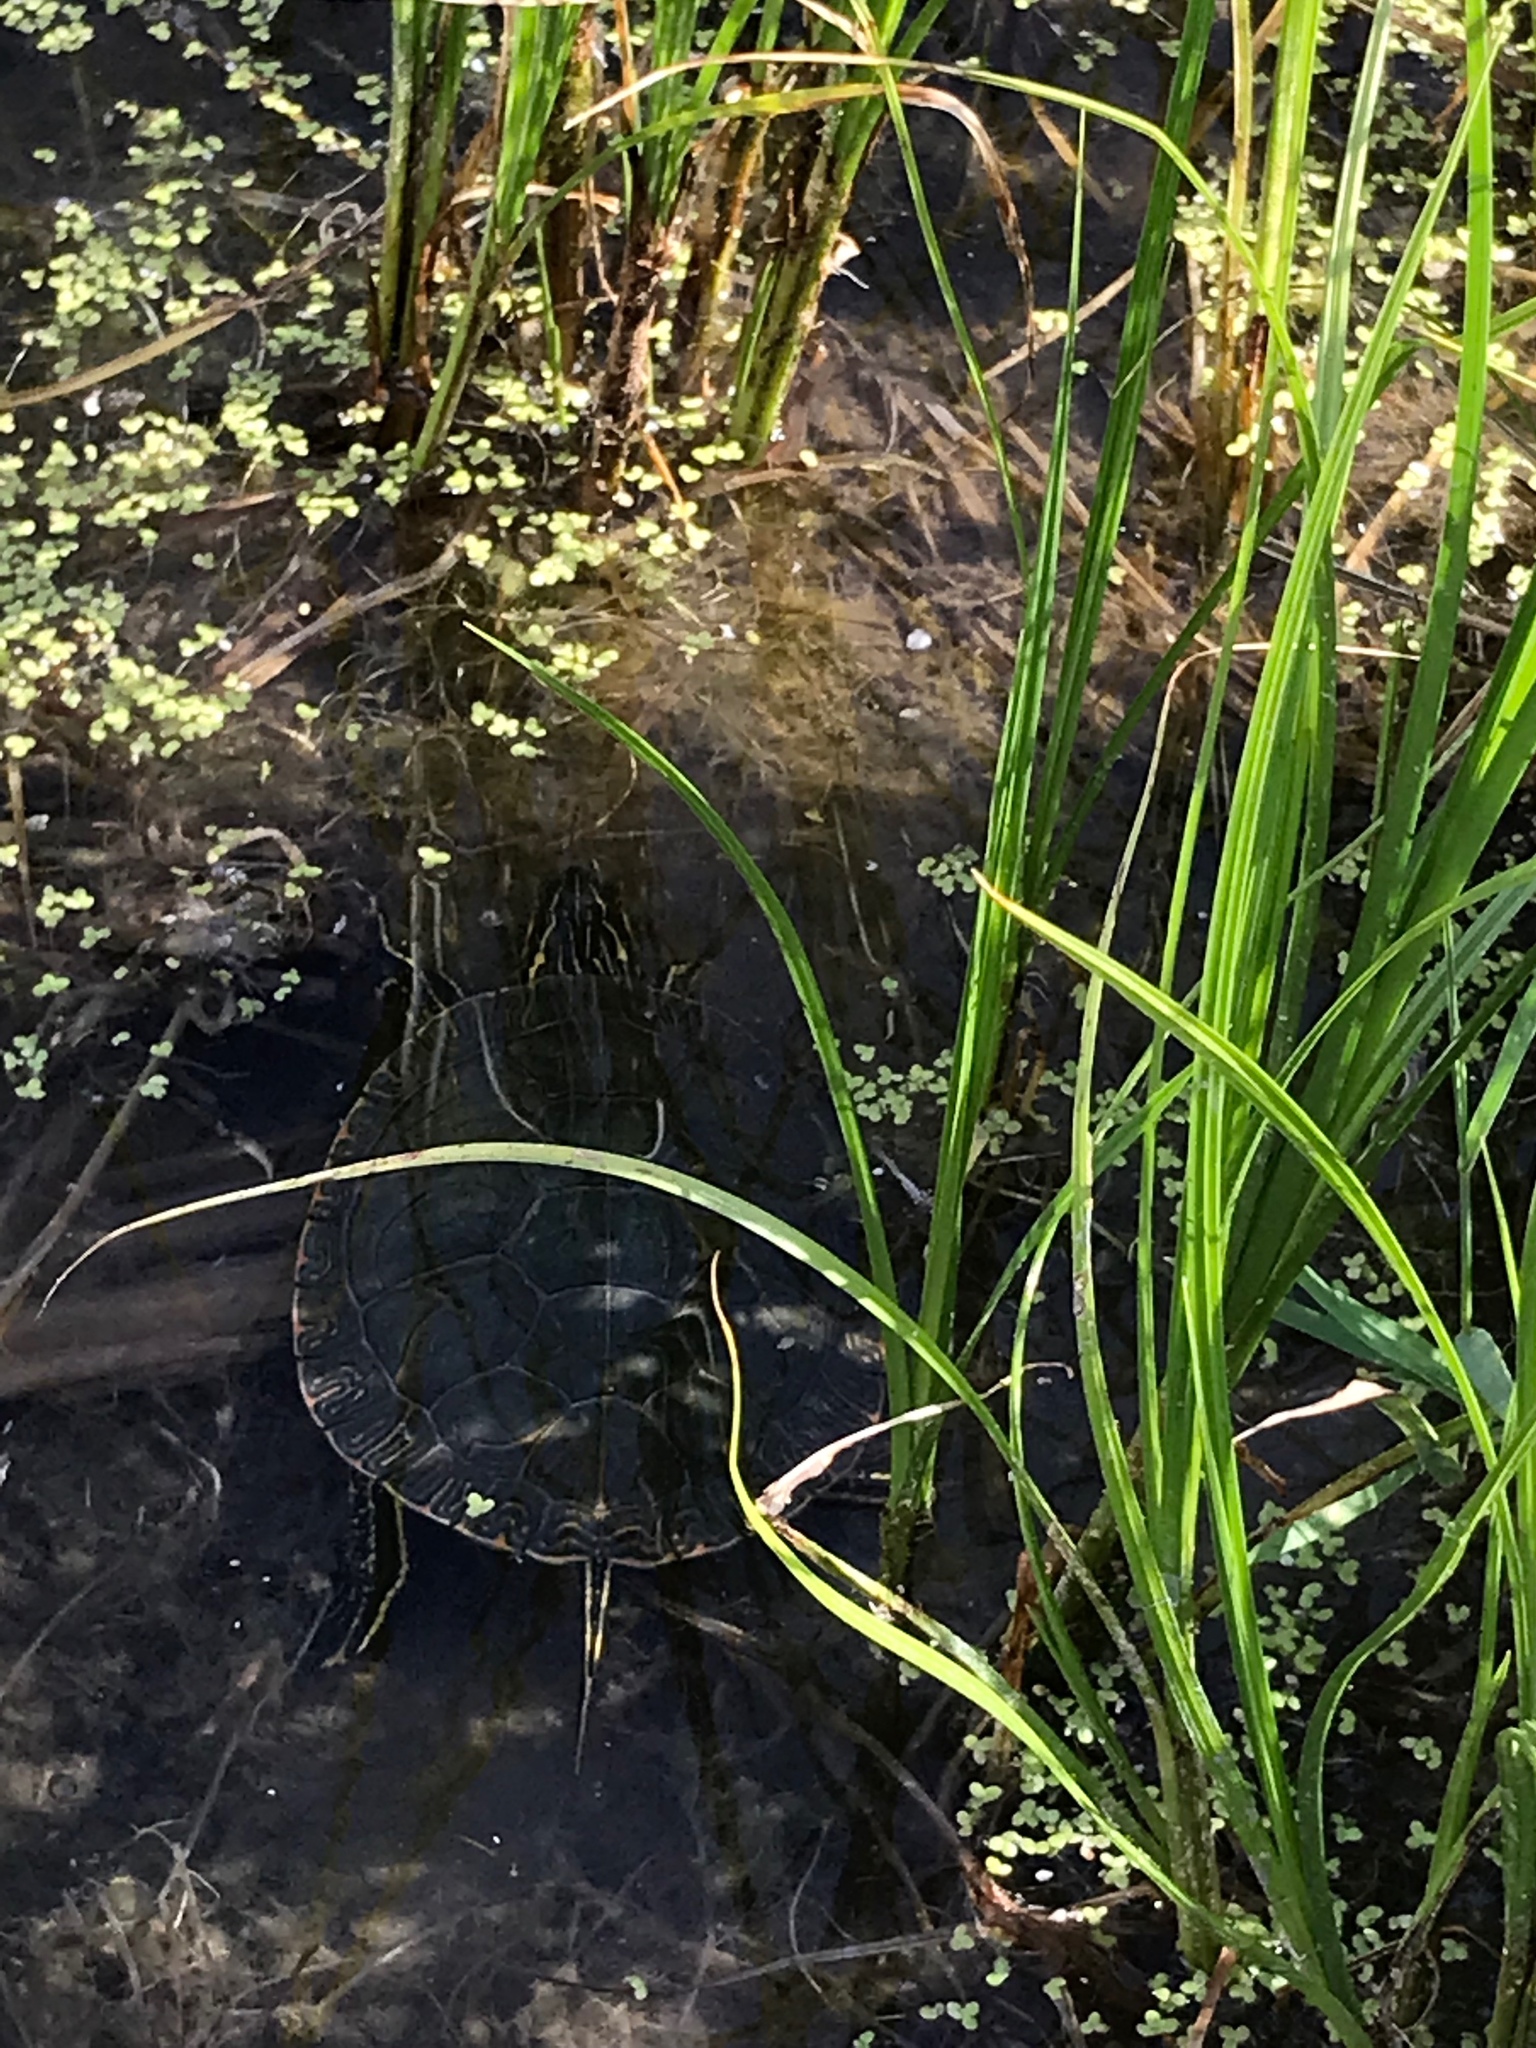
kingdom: Animalia
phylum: Chordata
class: Testudines
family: Emydidae
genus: Chrysemys
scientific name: Chrysemys picta
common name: Painted turtle
